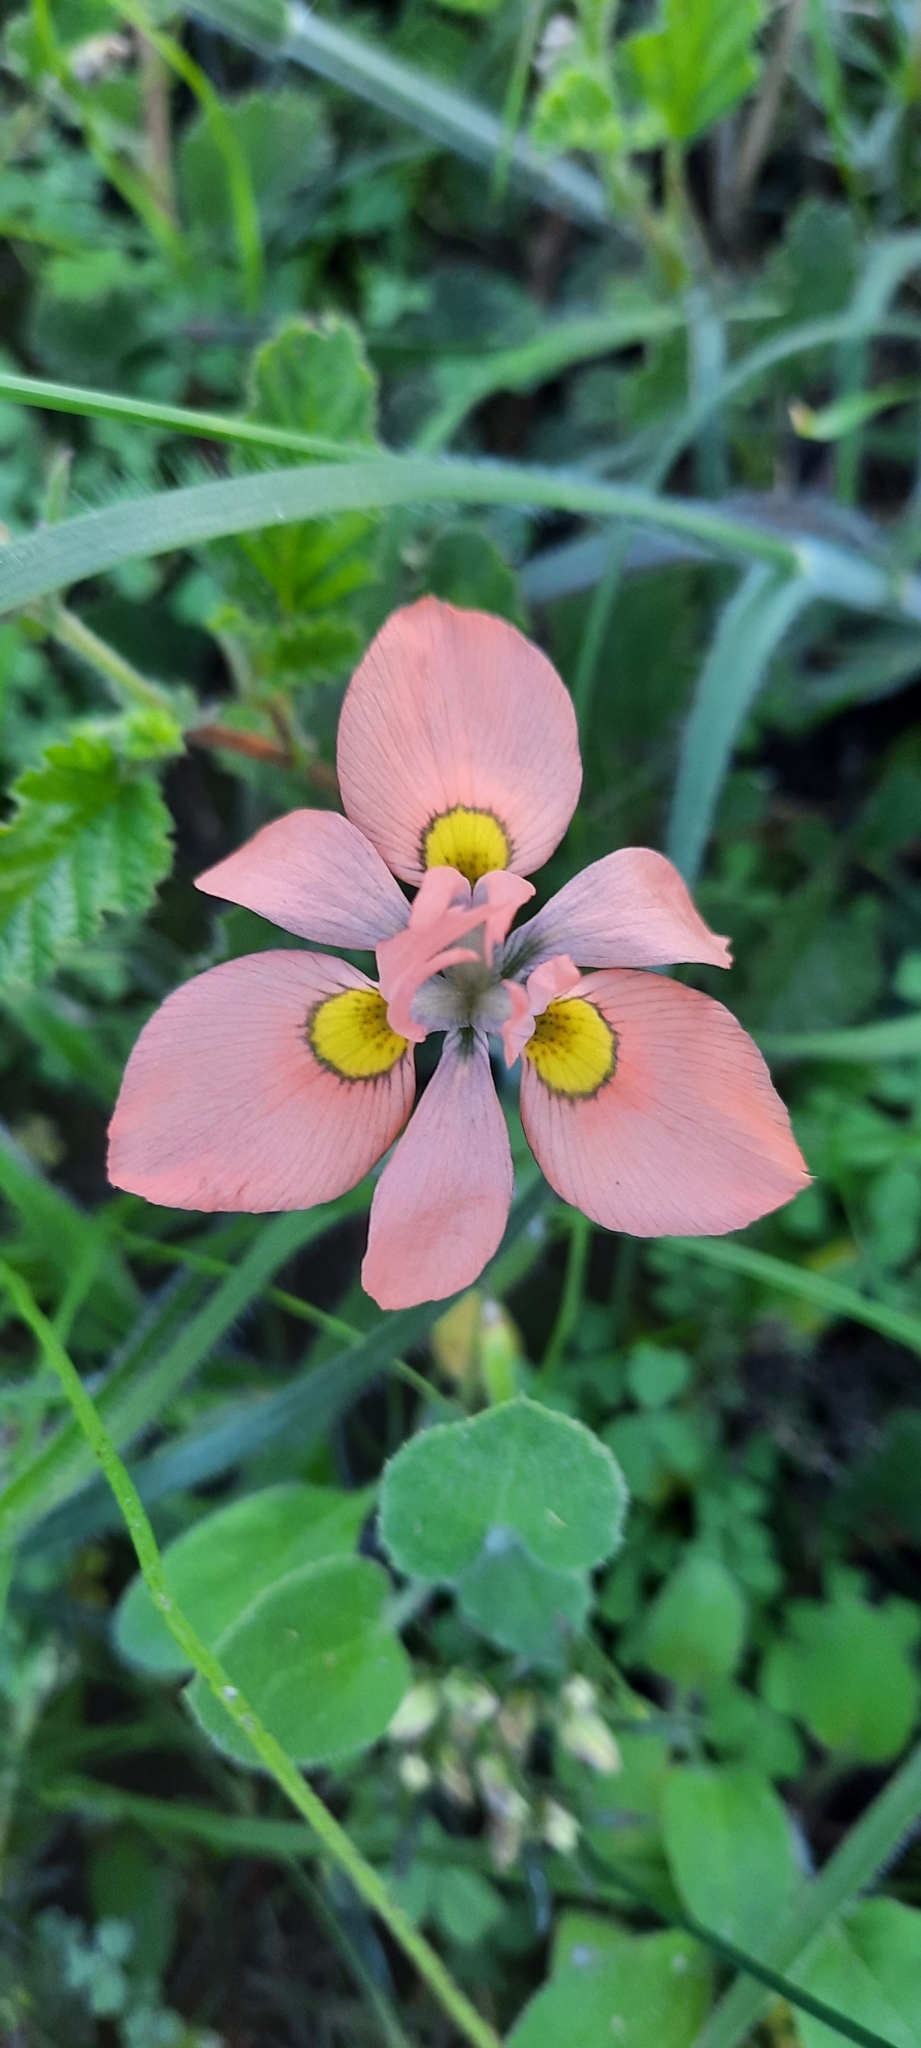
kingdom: Plantae
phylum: Tracheophyta
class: Liliopsida
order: Asparagales
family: Iridaceae
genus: Moraea
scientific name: Moraea papilionacea
